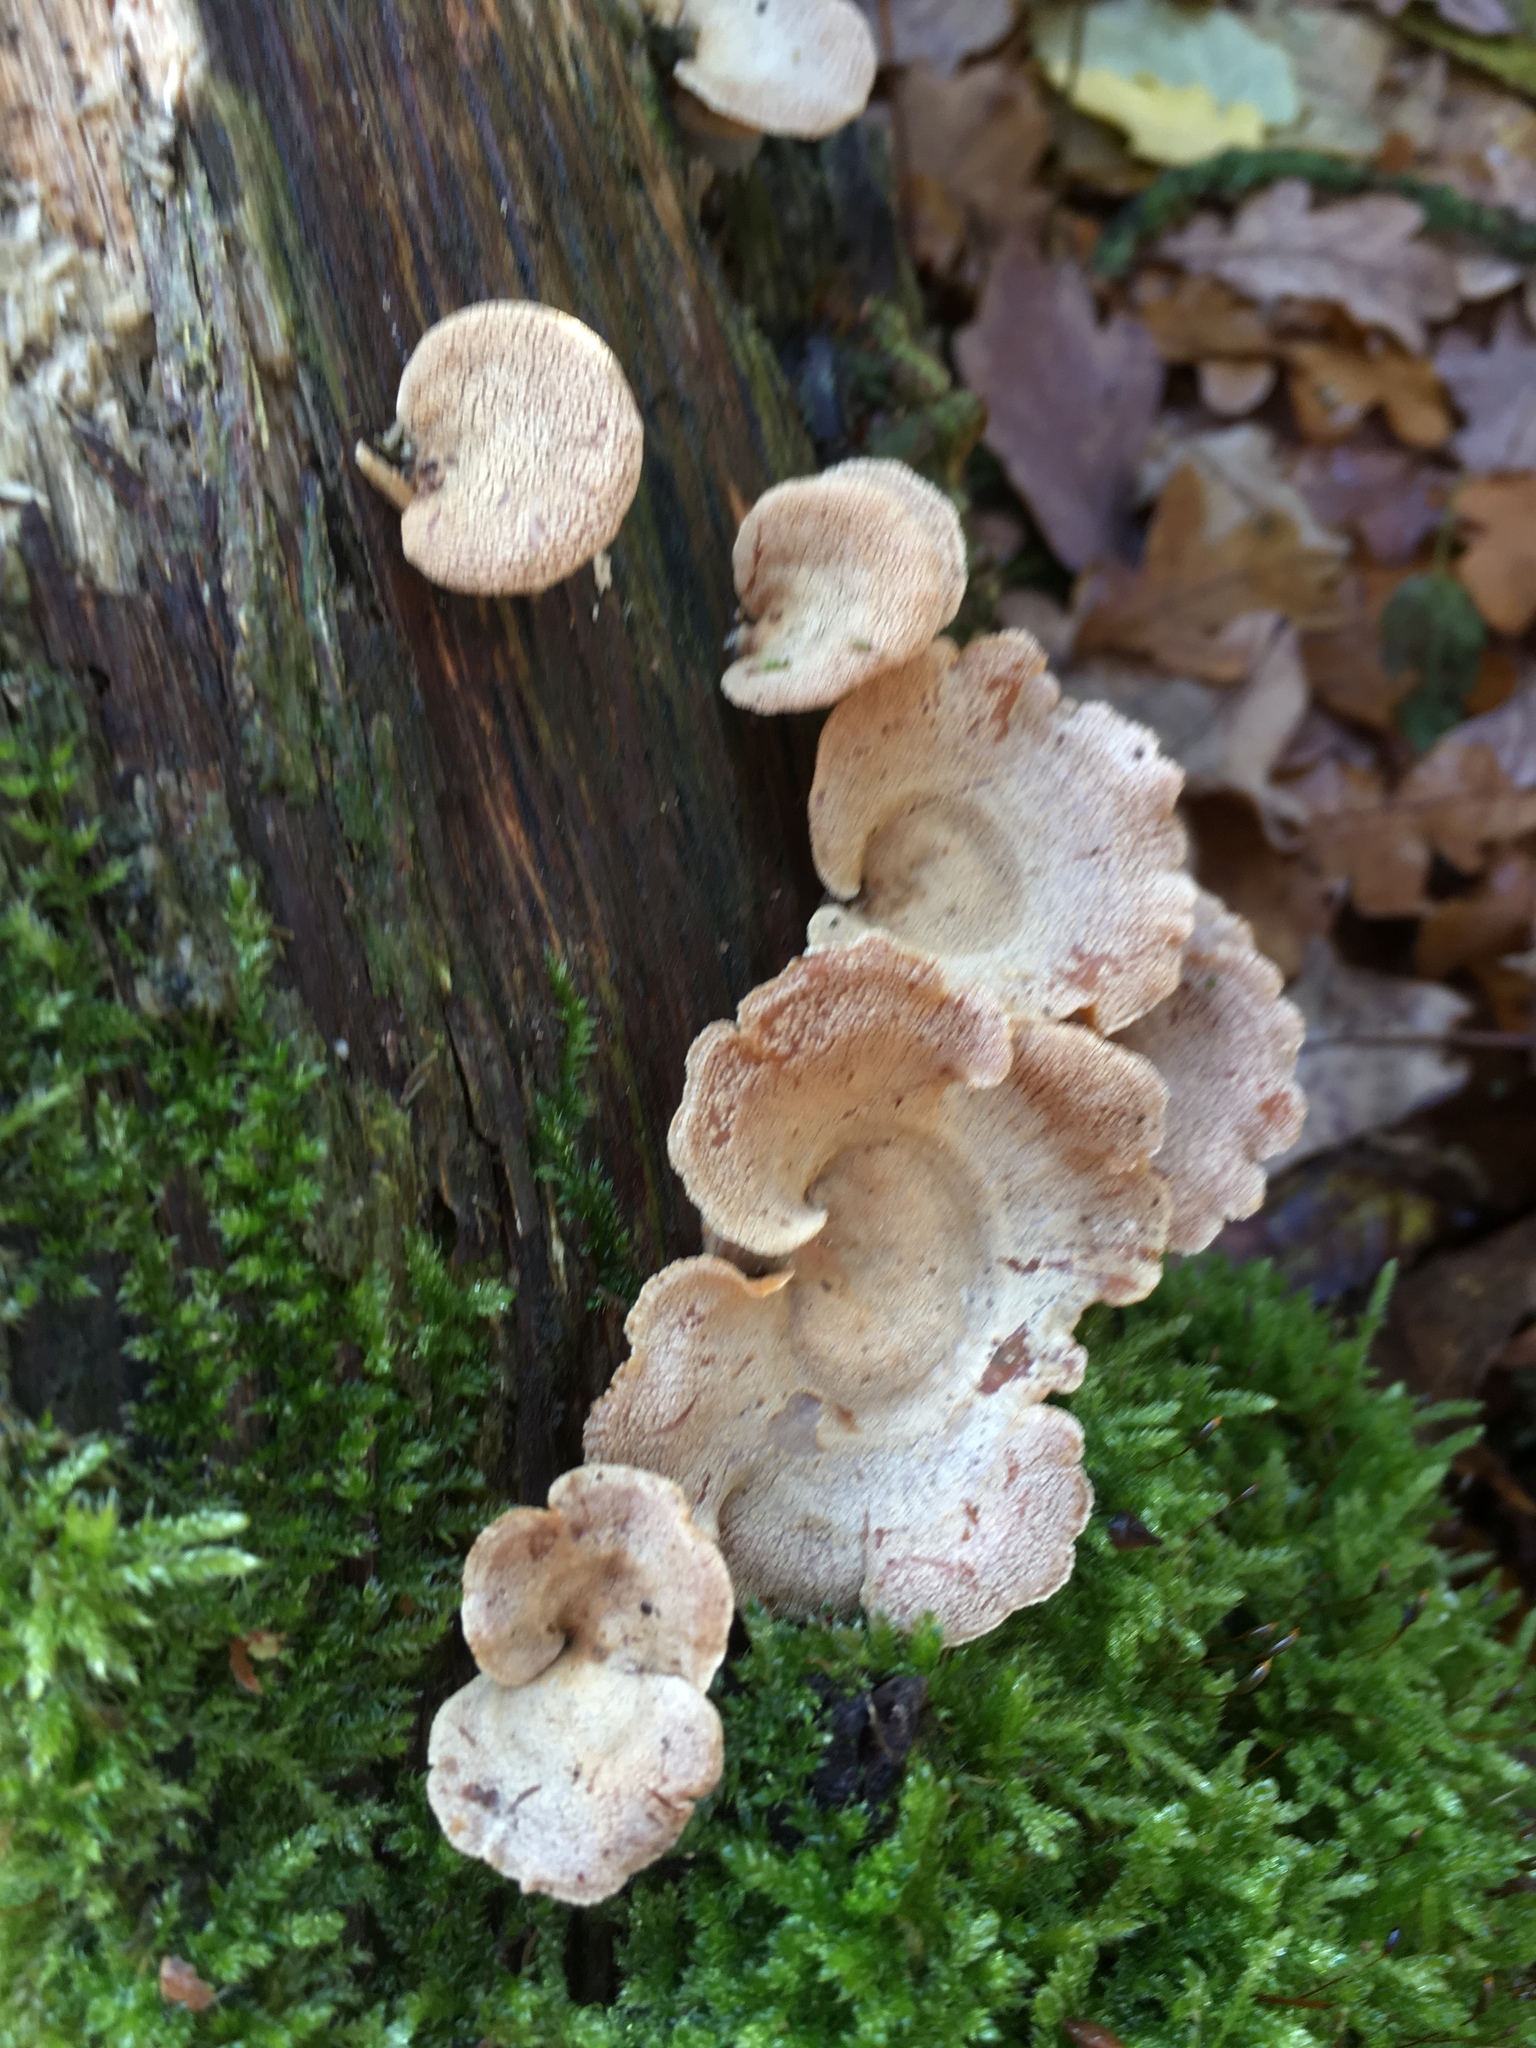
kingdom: Fungi
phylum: Basidiomycota
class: Agaricomycetes
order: Agaricales
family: Mycenaceae
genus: Panellus
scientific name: Panellus stipticus
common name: Bitter oysterling
